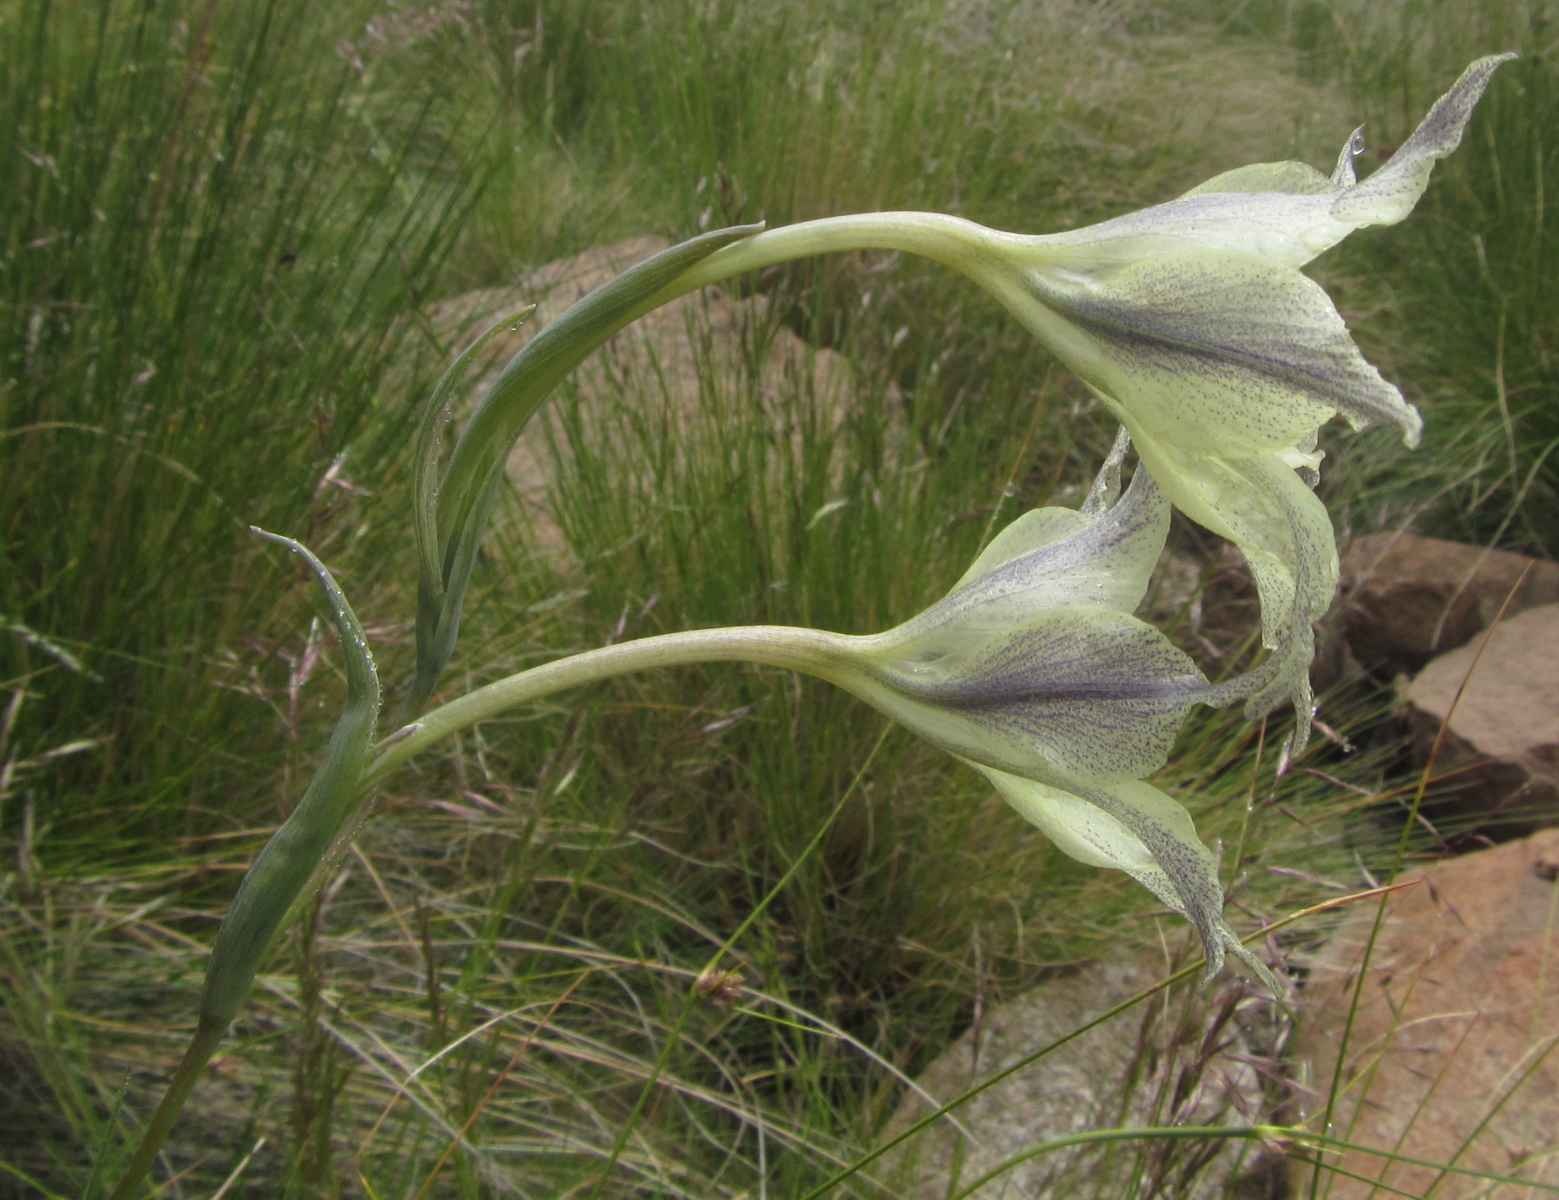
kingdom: Plantae
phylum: Tracheophyta
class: Liliopsida
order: Asparagales
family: Iridaceae
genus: Gladiolus
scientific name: Gladiolus longicollis
